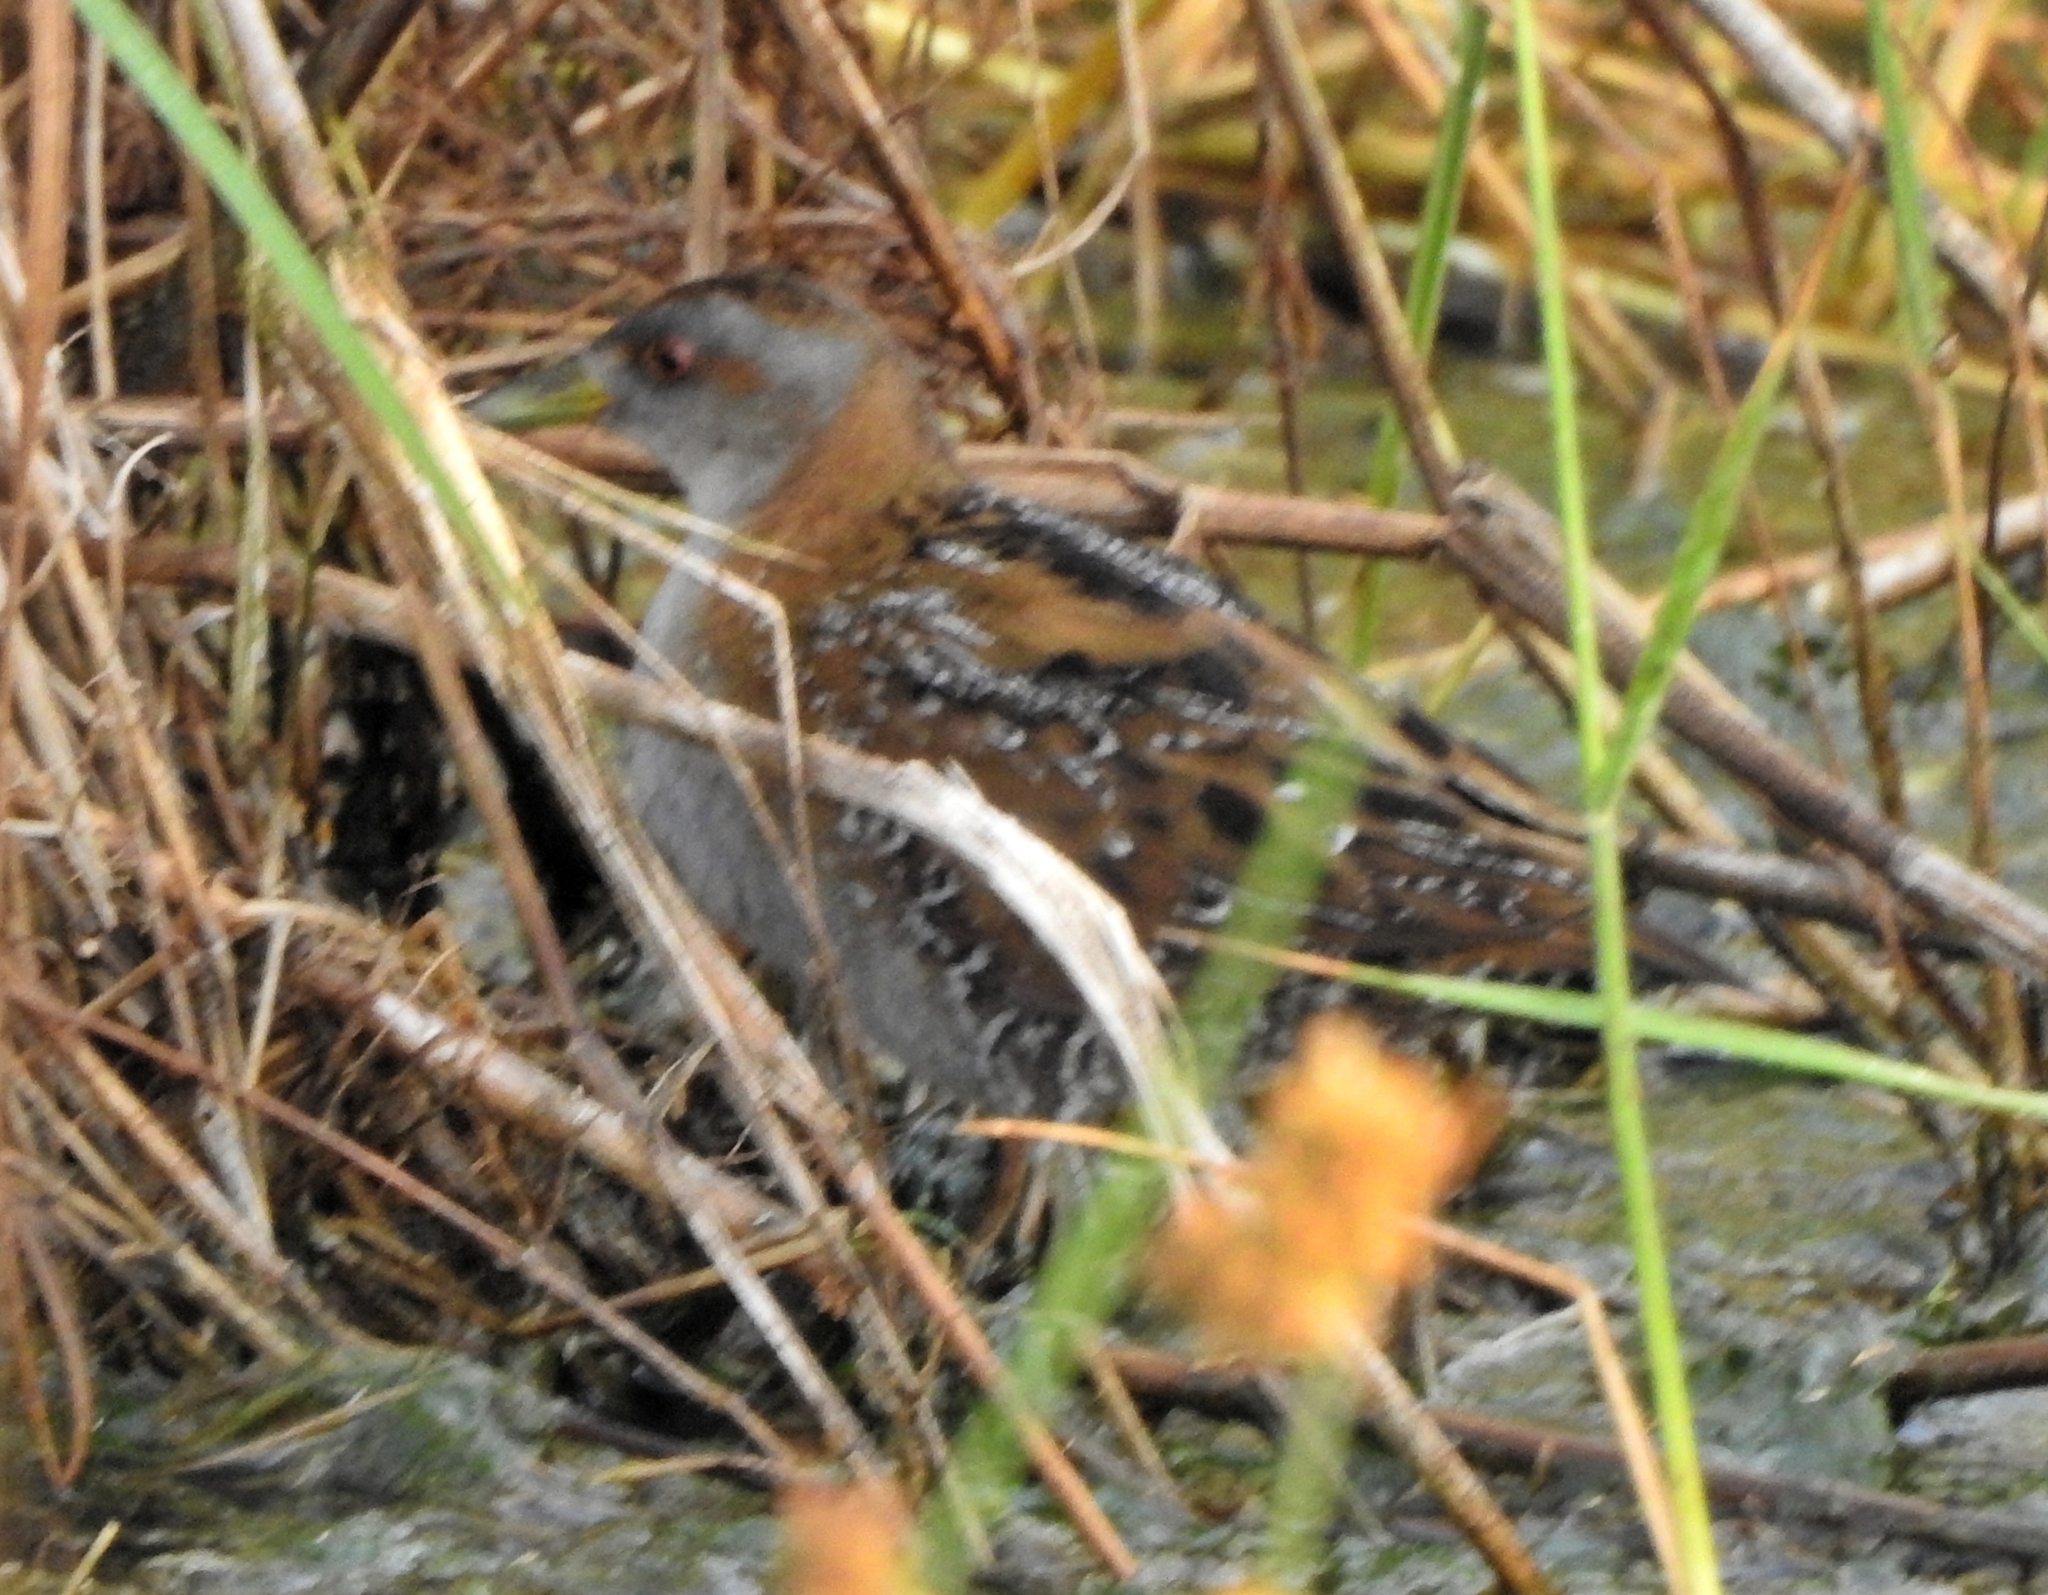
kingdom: Animalia
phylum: Chordata
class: Aves
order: Gruiformes
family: Rallidae
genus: Porzana
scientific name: Porzana pusilla
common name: Baillon's crake
